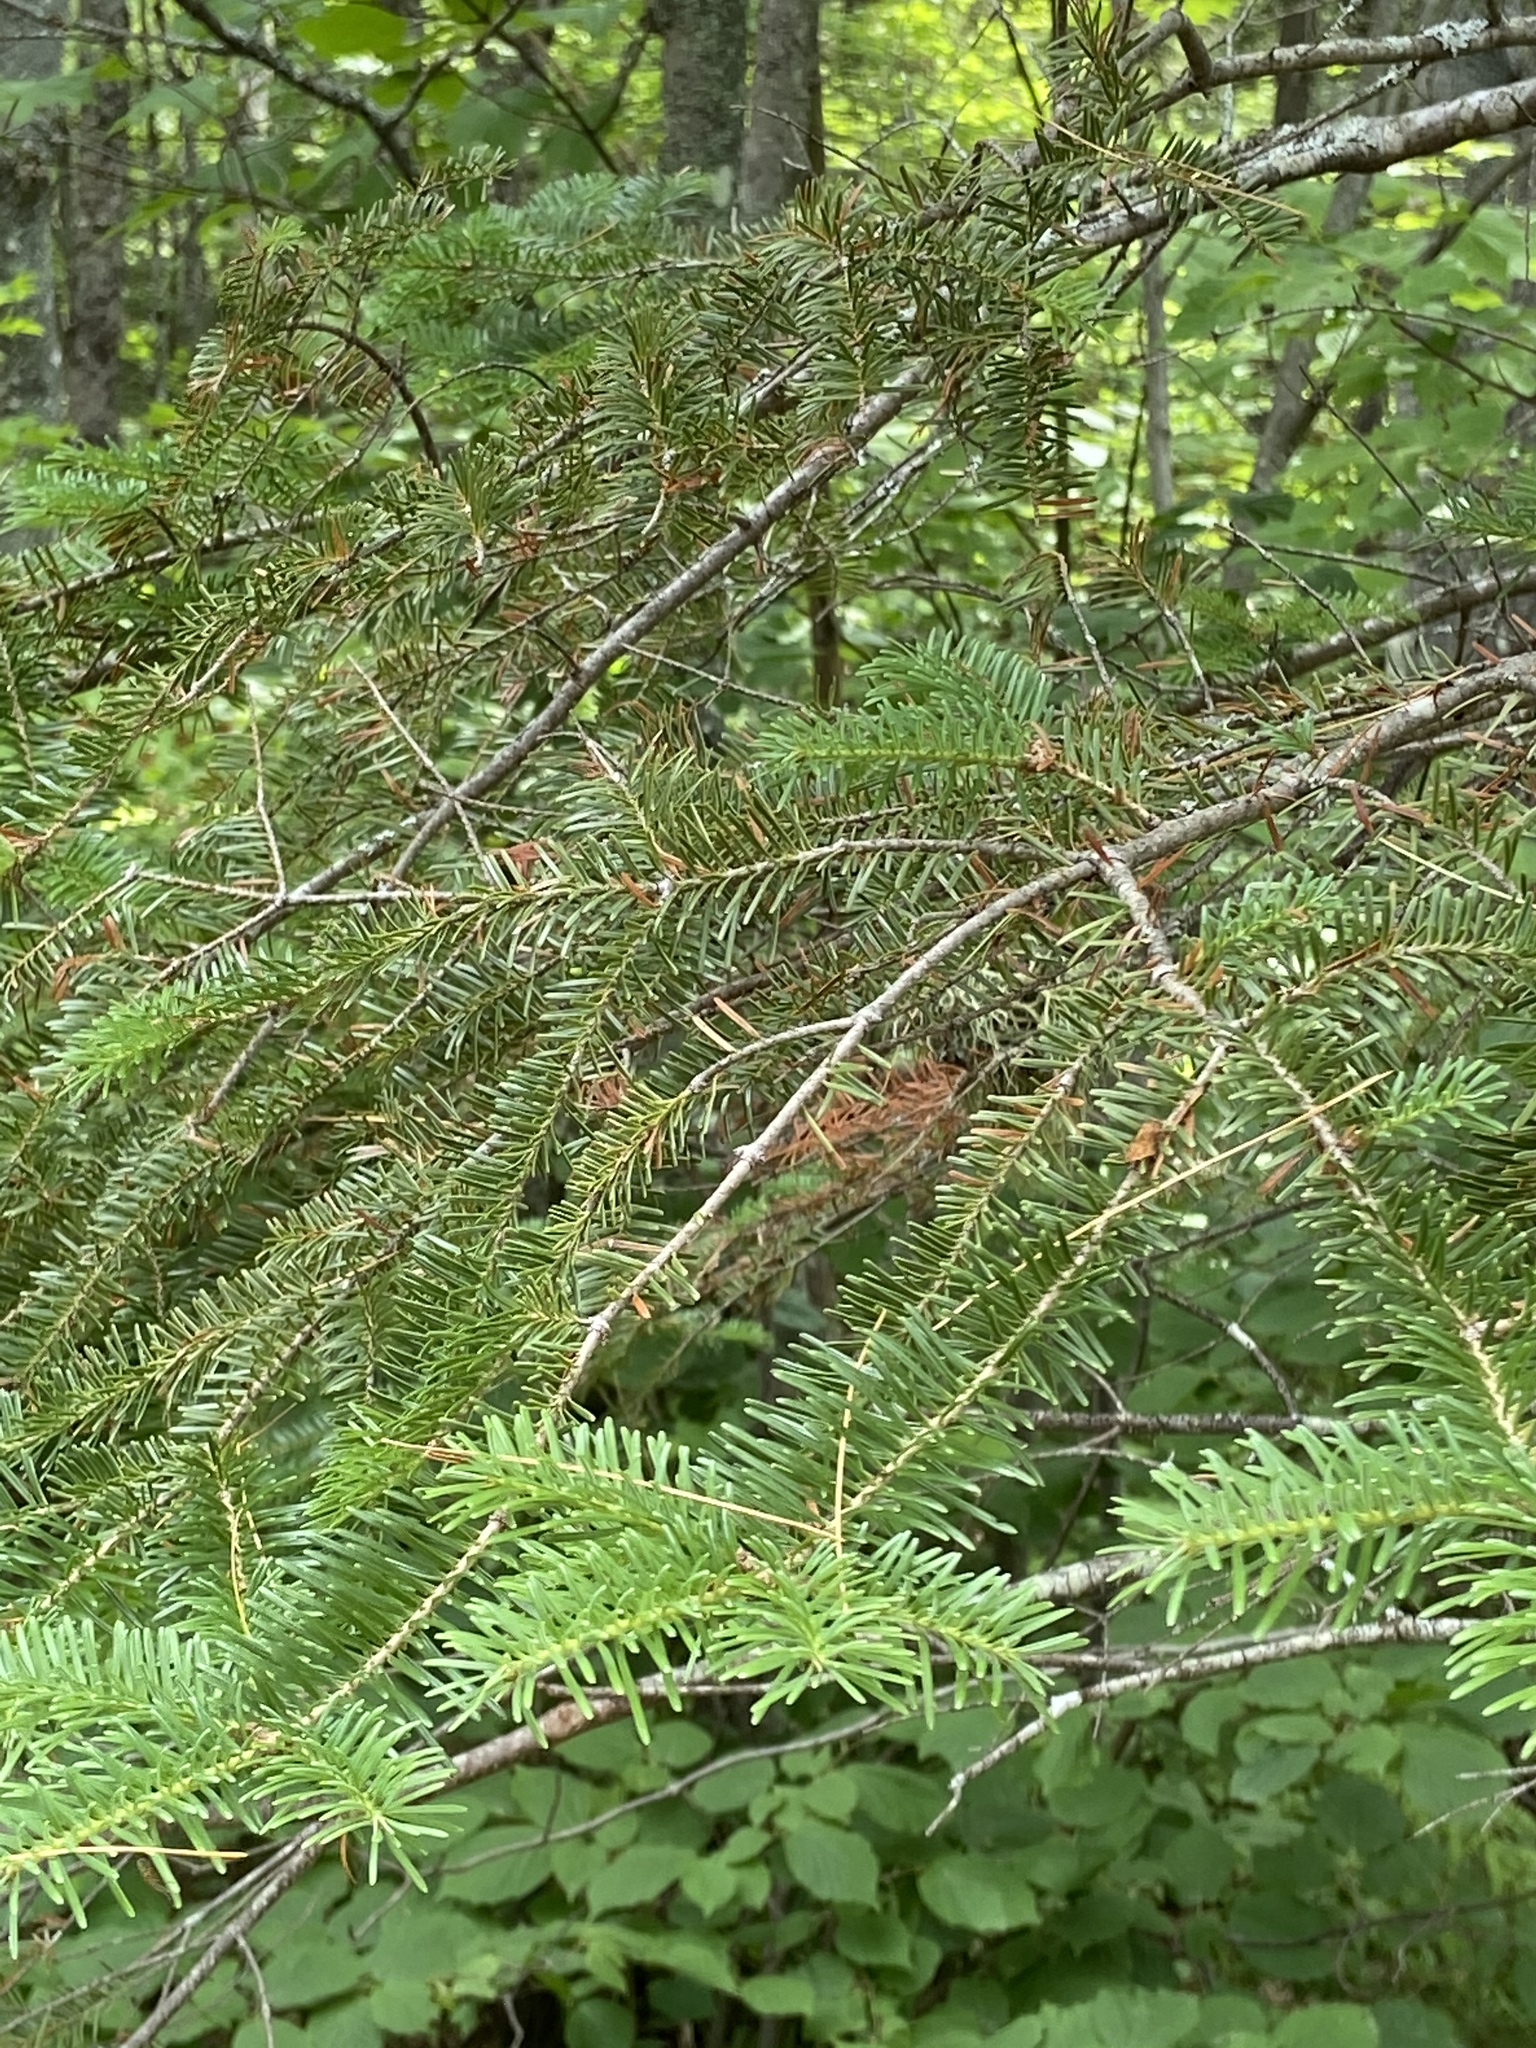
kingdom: Plantae
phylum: Tracheophyta
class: Pinopsida
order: Pinales
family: Pinaceae
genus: Abies
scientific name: Abies balsamea
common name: Balsam fir
